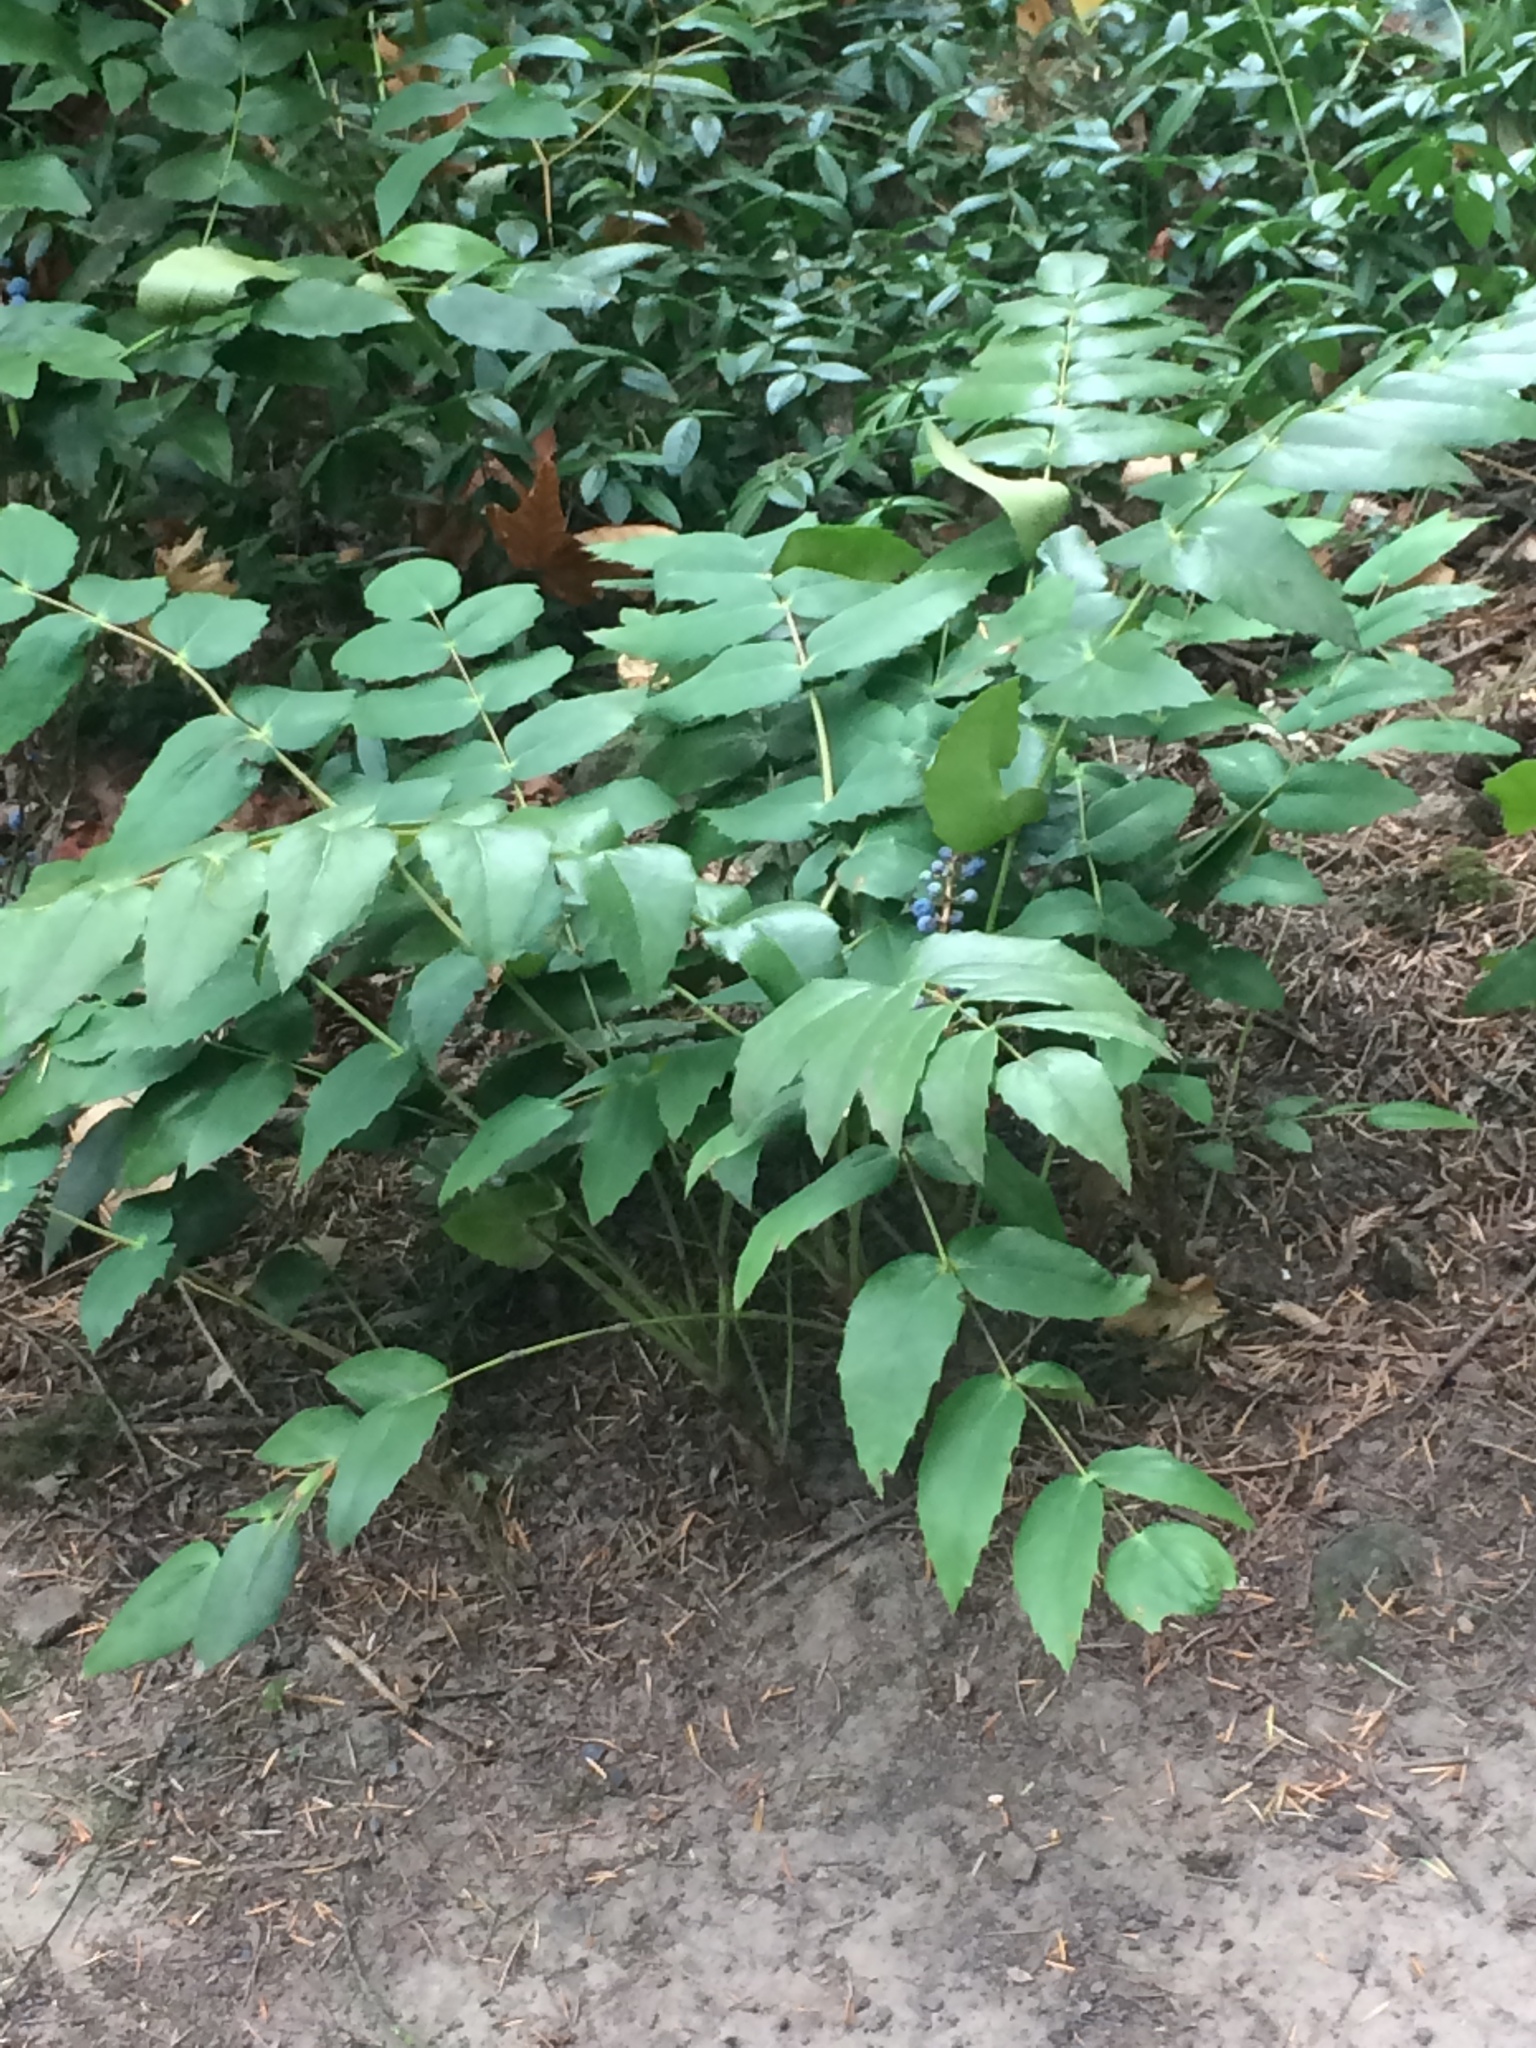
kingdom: Plantae
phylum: Tracheophyta
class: Magnoliopsida
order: Ranunculales
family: Berberidaceae
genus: Mahonia
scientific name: Mahonia nervosa
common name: Cascade oregon-grape
